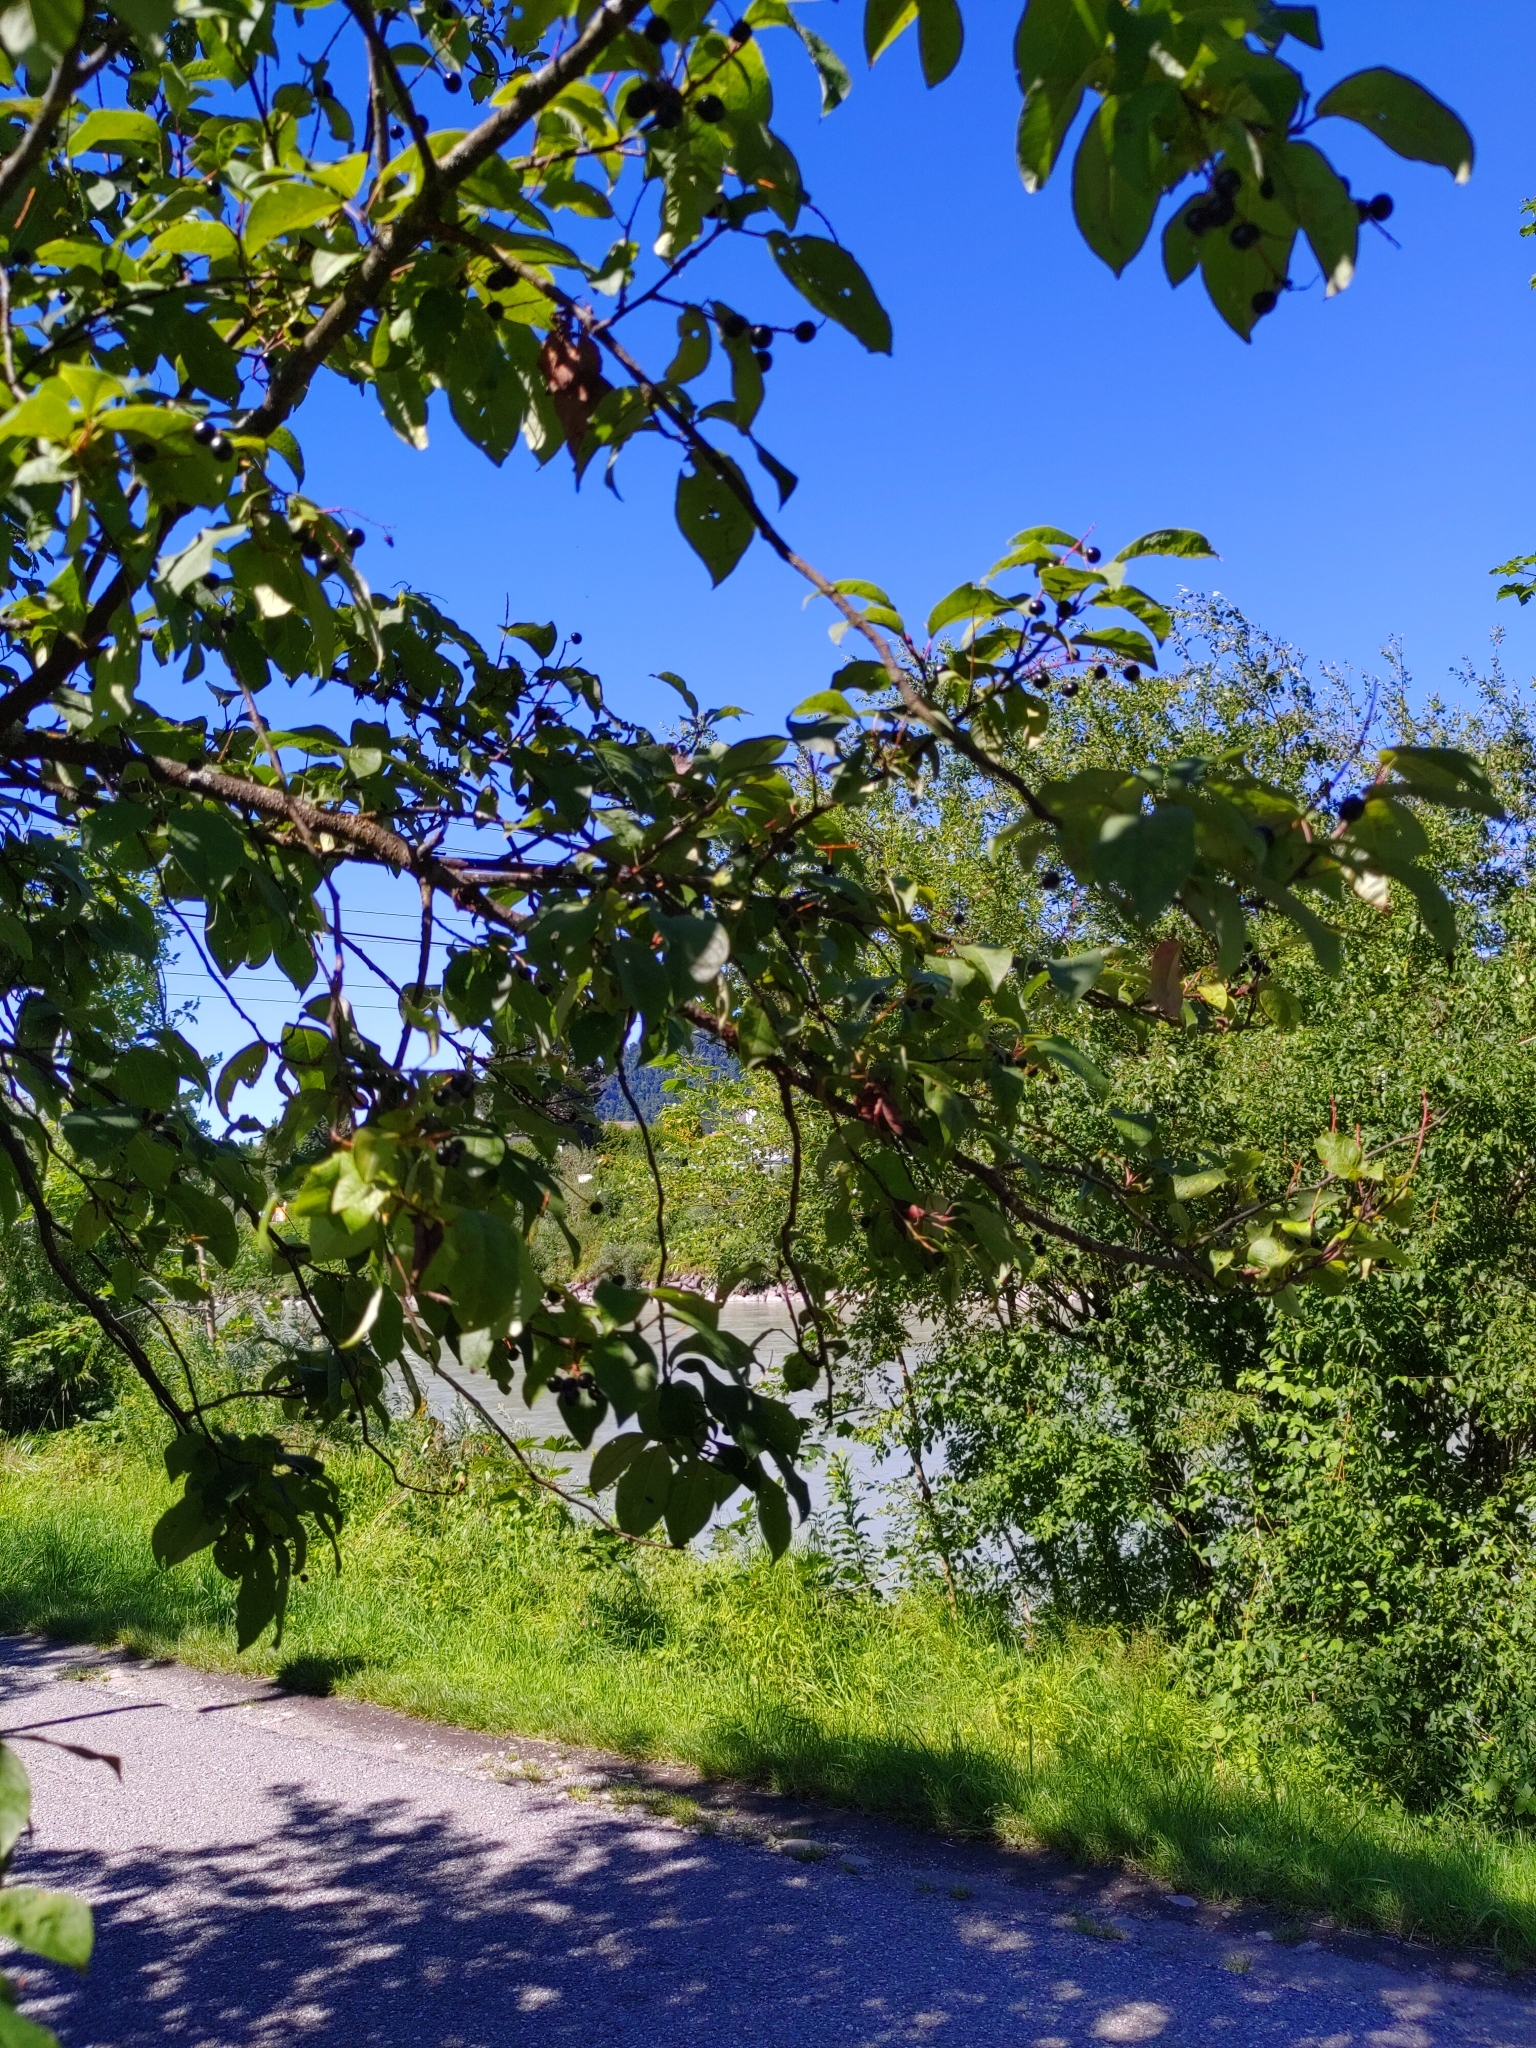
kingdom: Plantae
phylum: Tracheophyta
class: Magnoliopsida
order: Rosales
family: Rosaceae
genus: Prunus
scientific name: Prunus padus
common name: Bird cherry
